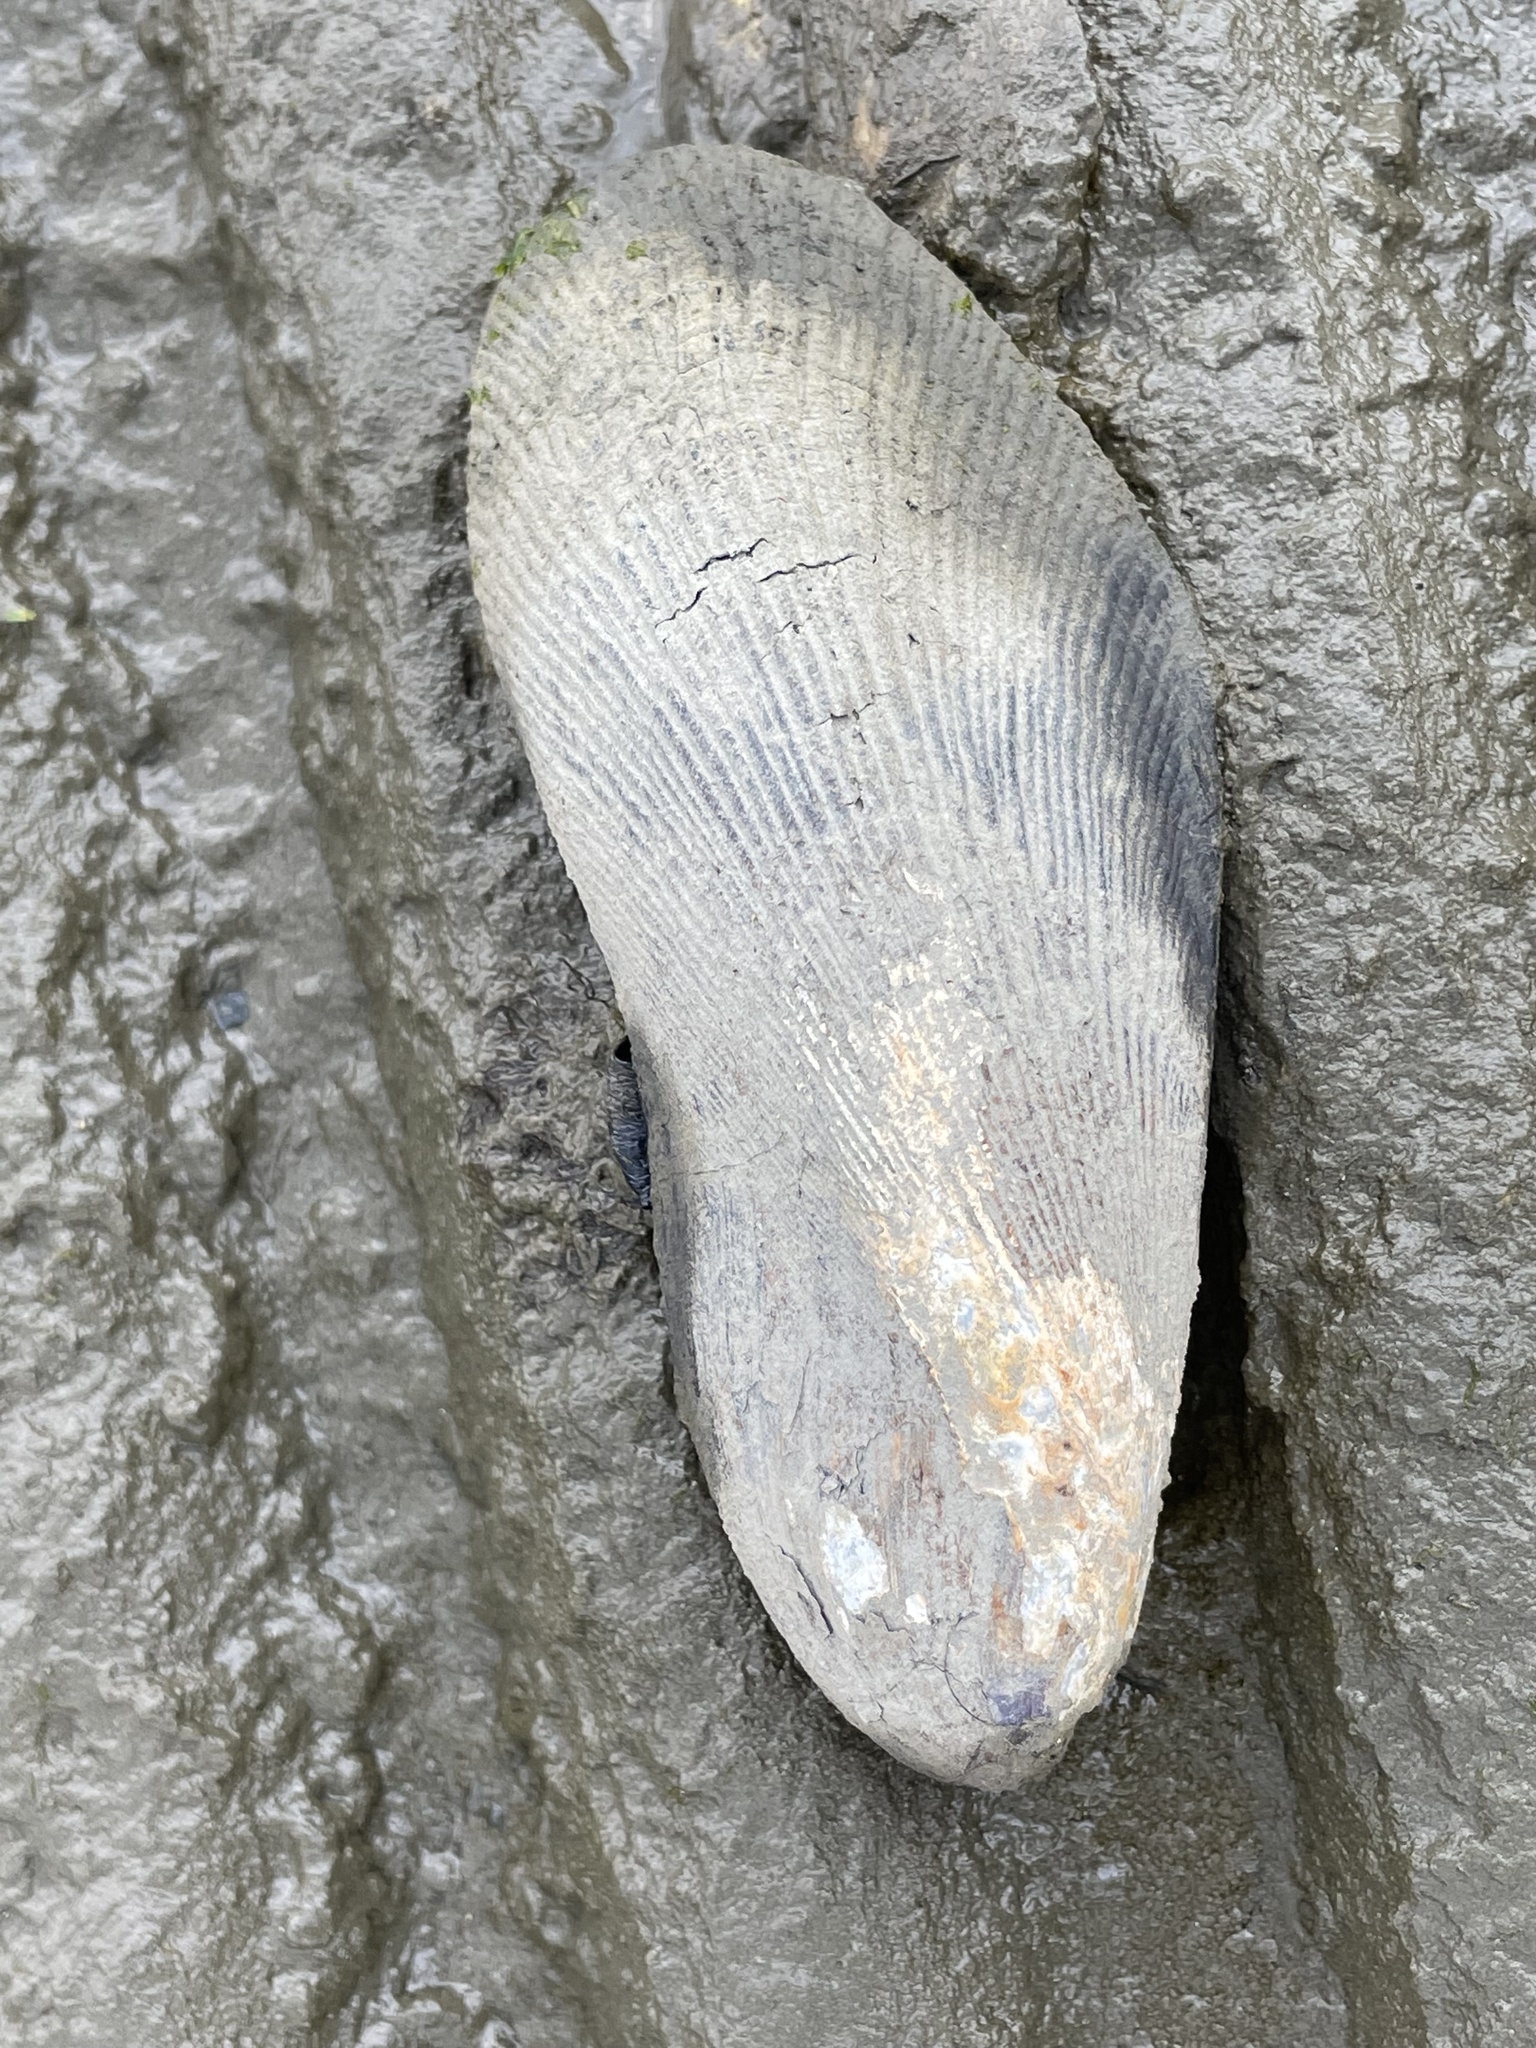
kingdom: Animalia
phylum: Mollusca
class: Bivalvia
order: Mytilida
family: Mytilidae
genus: Geukensia
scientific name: Geukensia demissa
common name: Ribbed mussel
